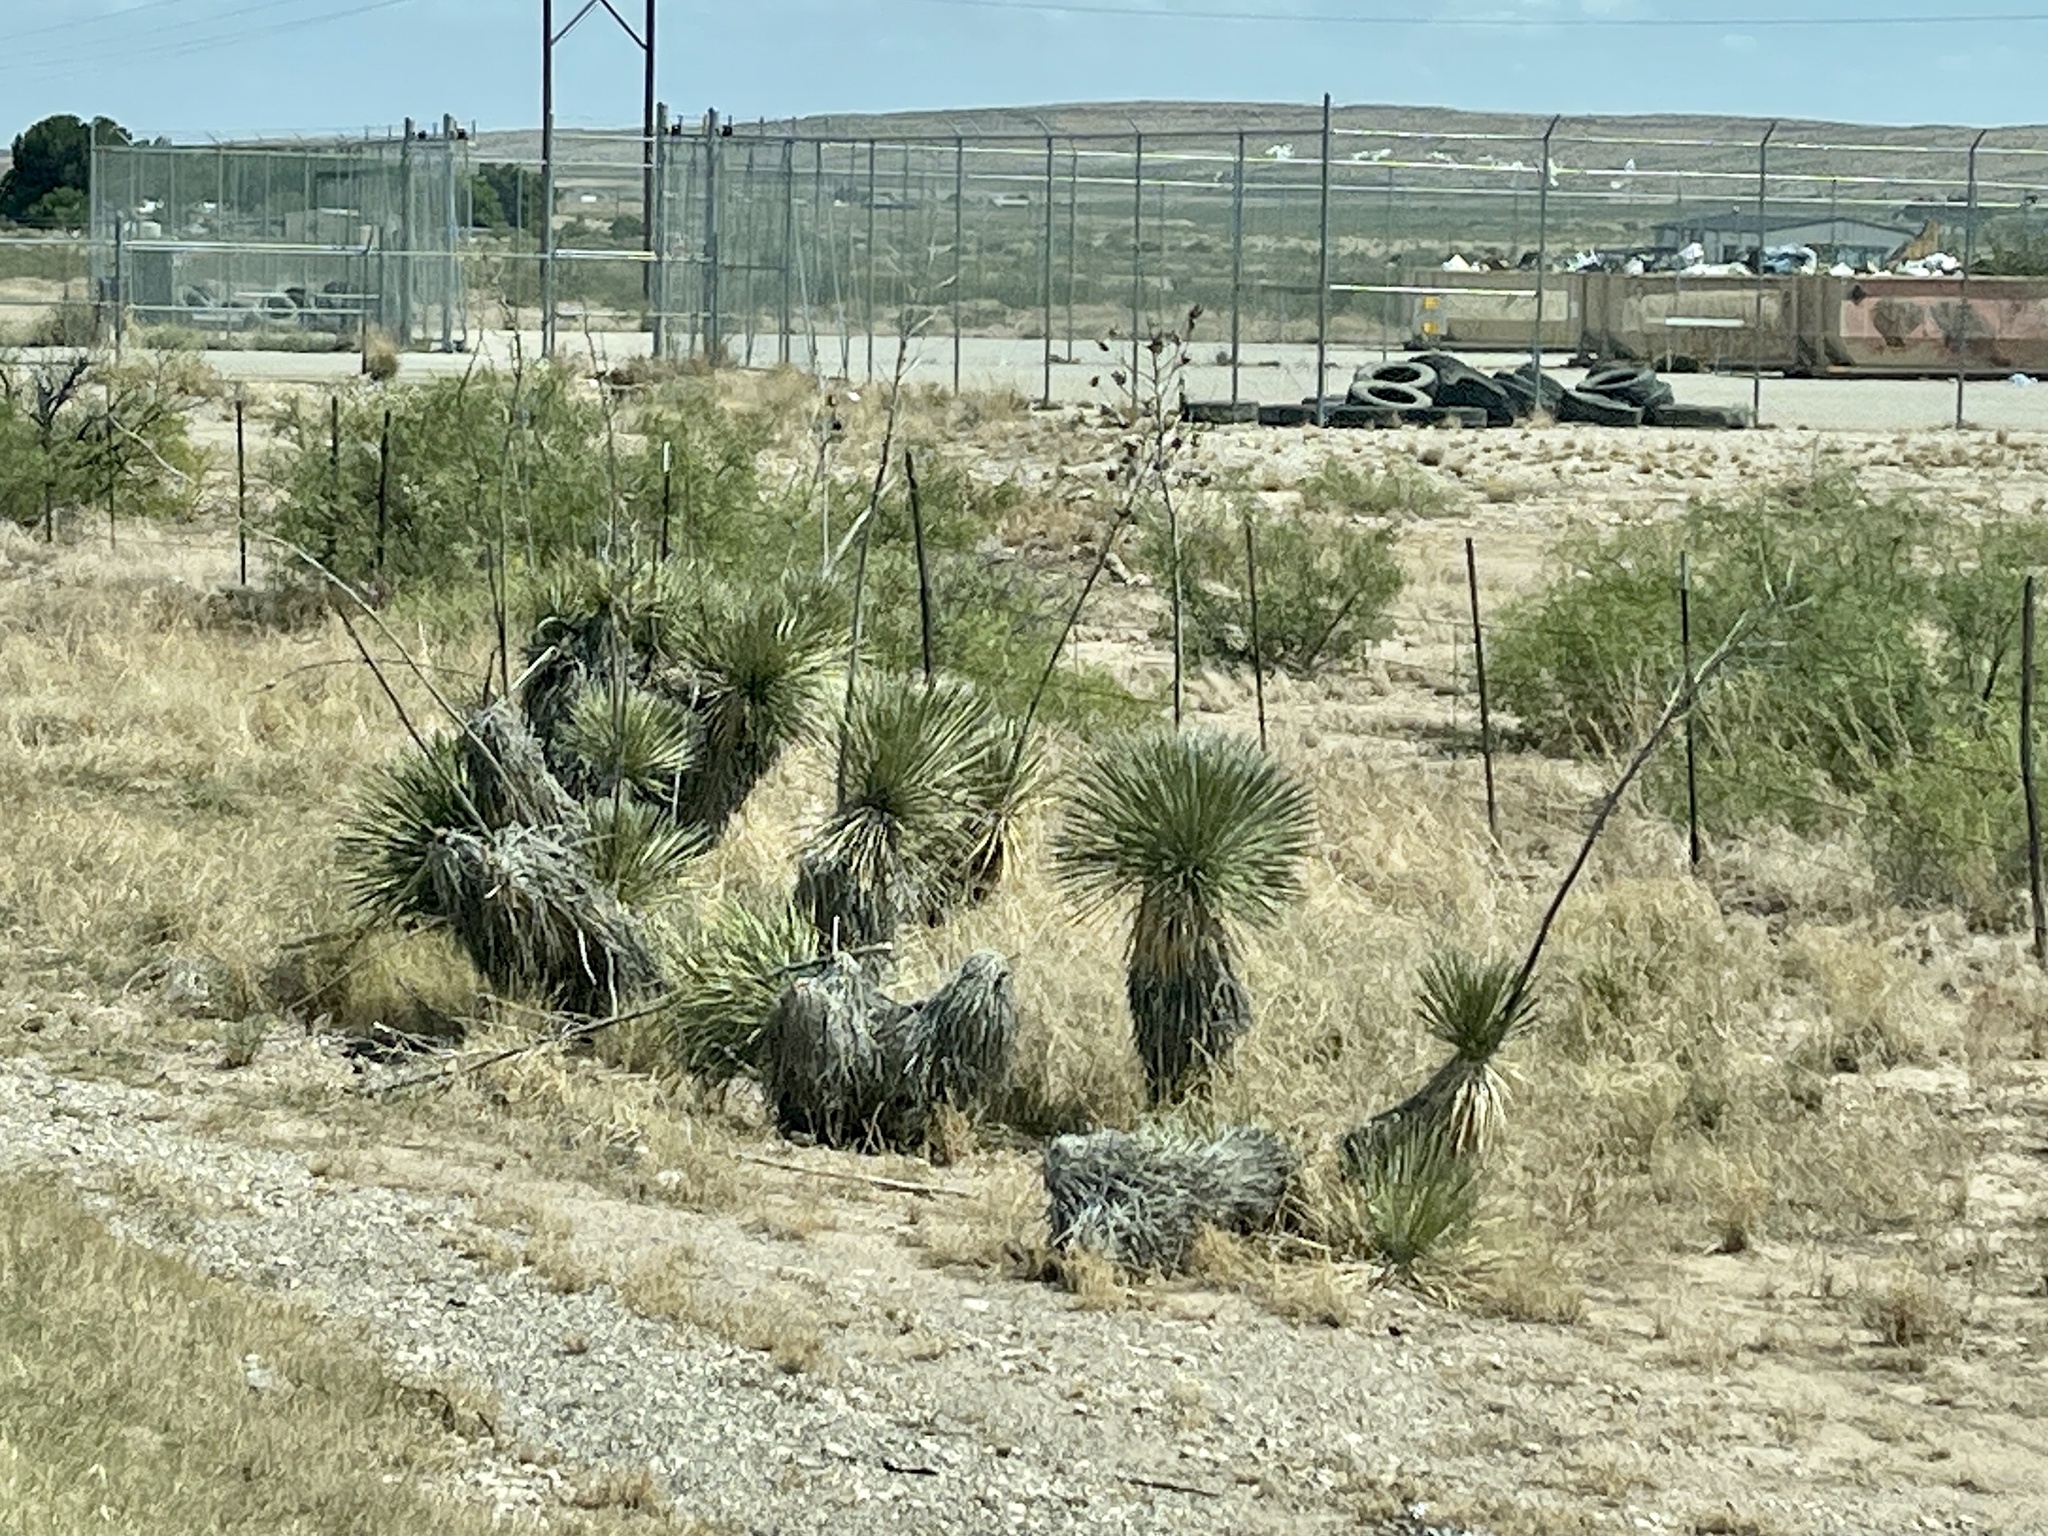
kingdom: Plantae
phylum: Tracheophyta
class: Liliopsida
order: Asparagales
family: Asparagaceae
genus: Yucca
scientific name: Yucca elata
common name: Palmella
